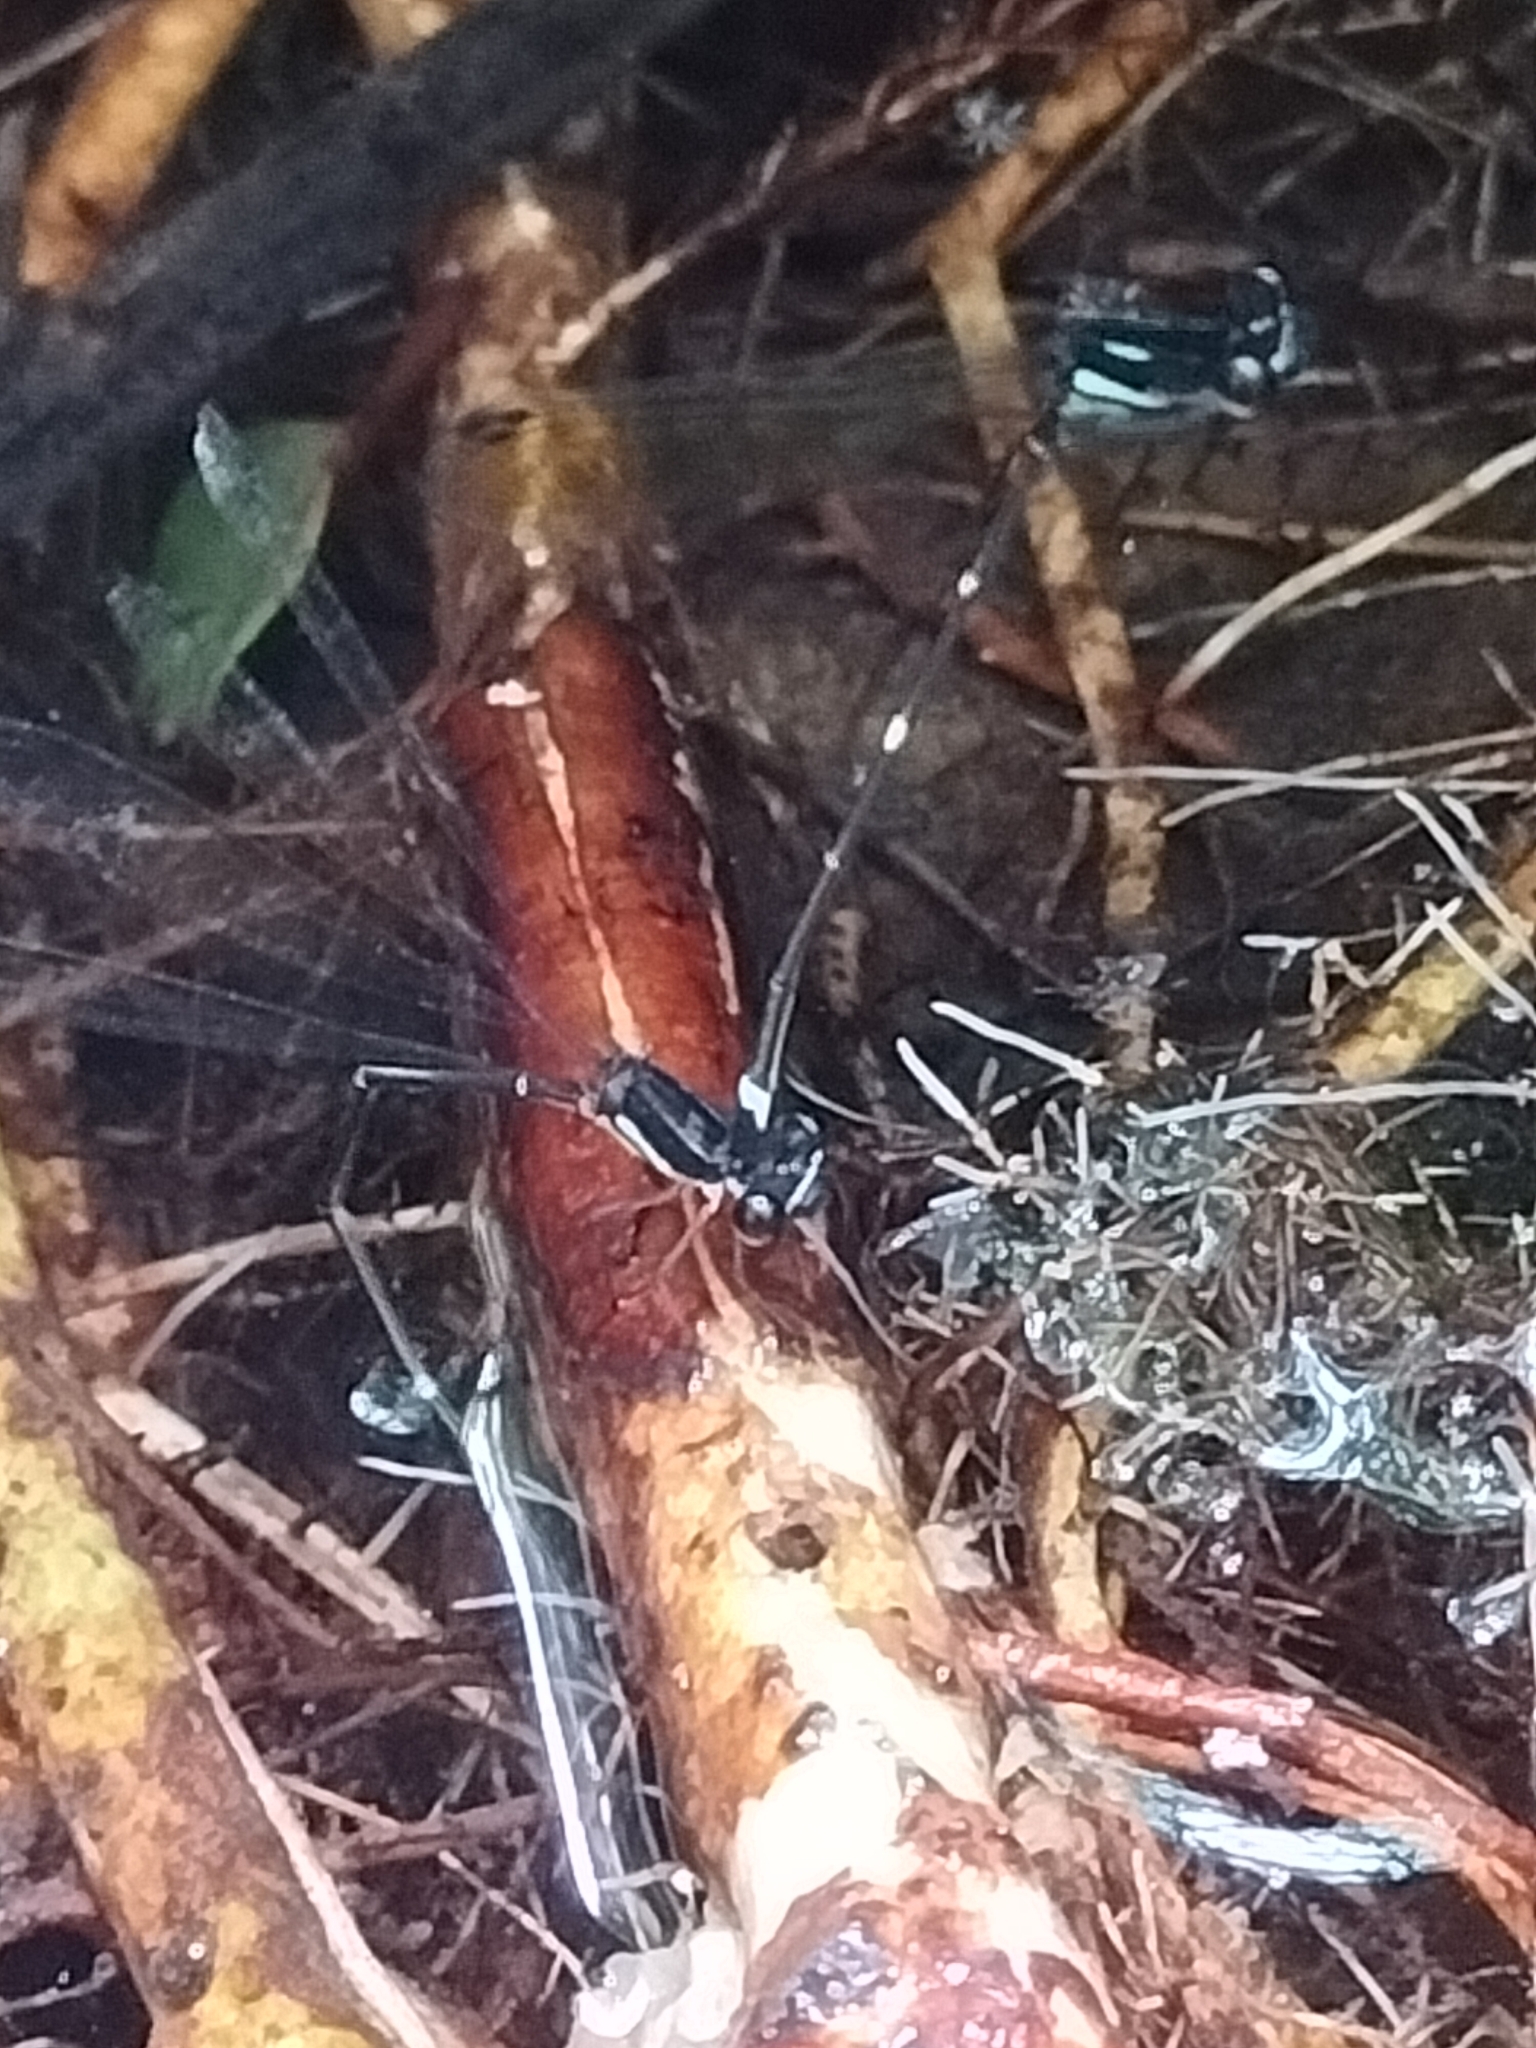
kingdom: Animalia
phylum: Arthropoda
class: Insecta
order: Odonata
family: Platycnemididae
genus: Nososticta
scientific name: Nososticta solitaria
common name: Fivespot threadtail
